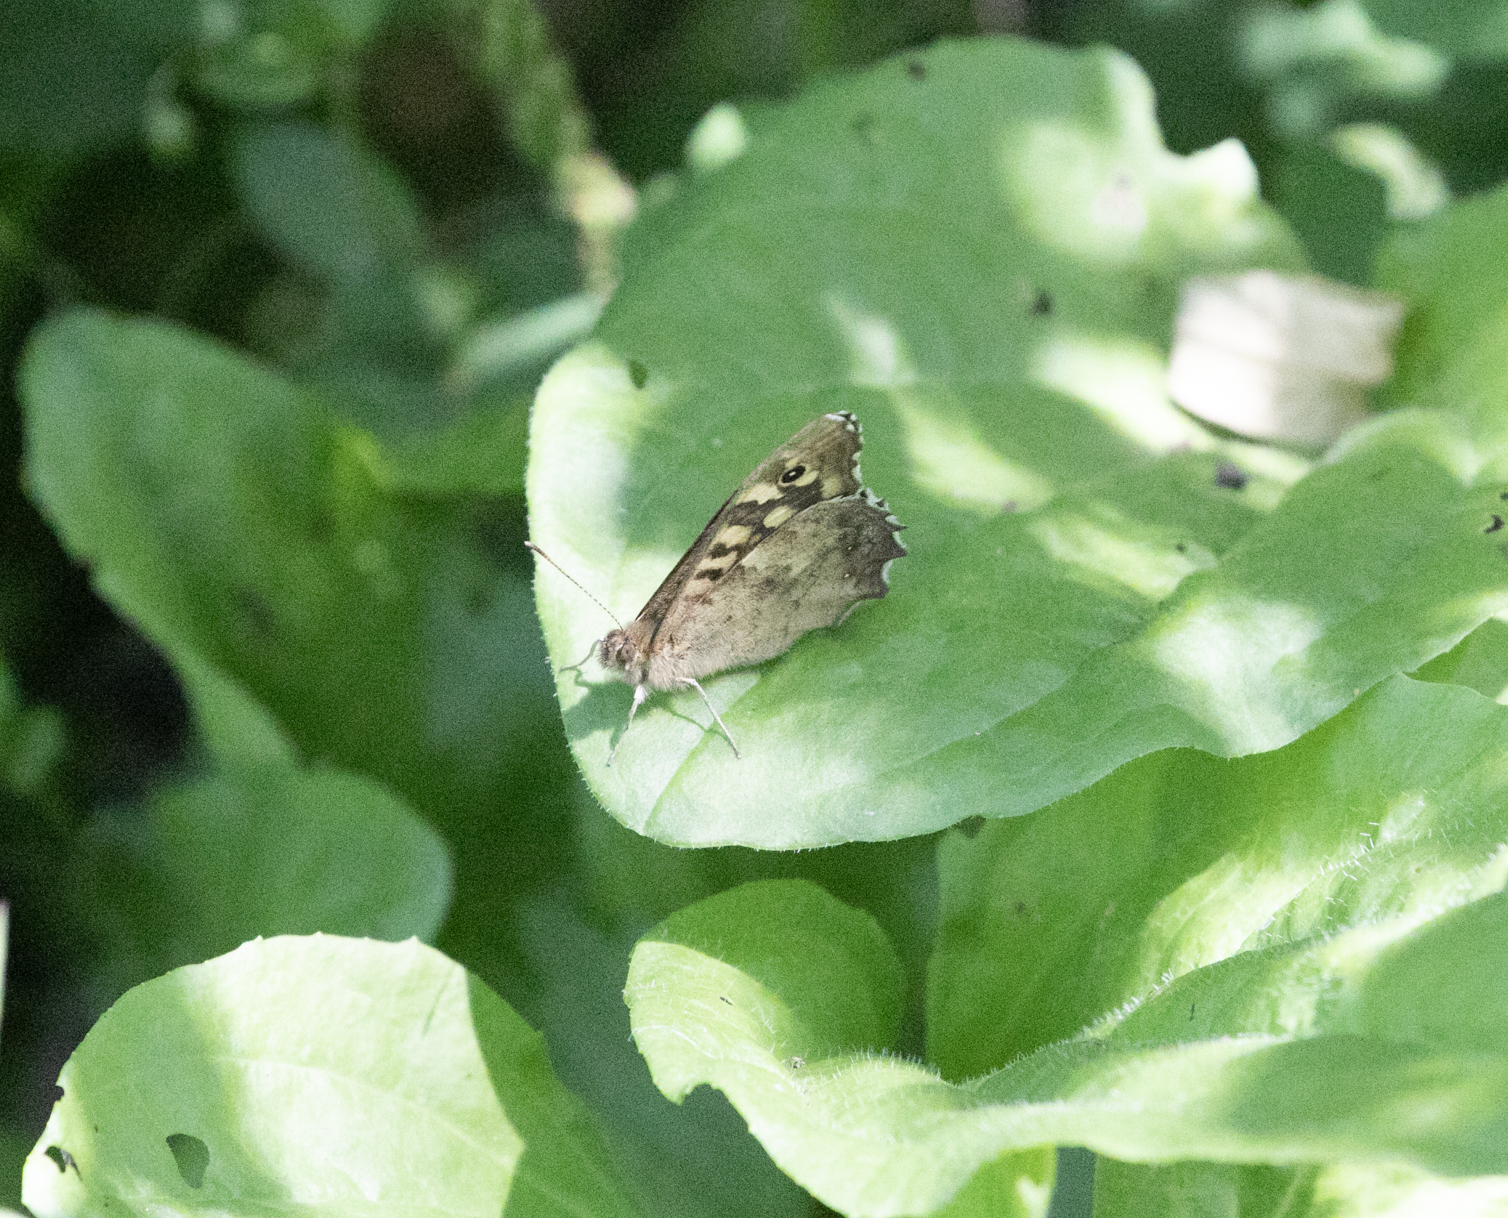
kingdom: Animalia
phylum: Arthropoda
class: Insecta
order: Lepidoptera
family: Nymphalidae
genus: Pararge
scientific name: Pararge aegeria
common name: Speckled wood
